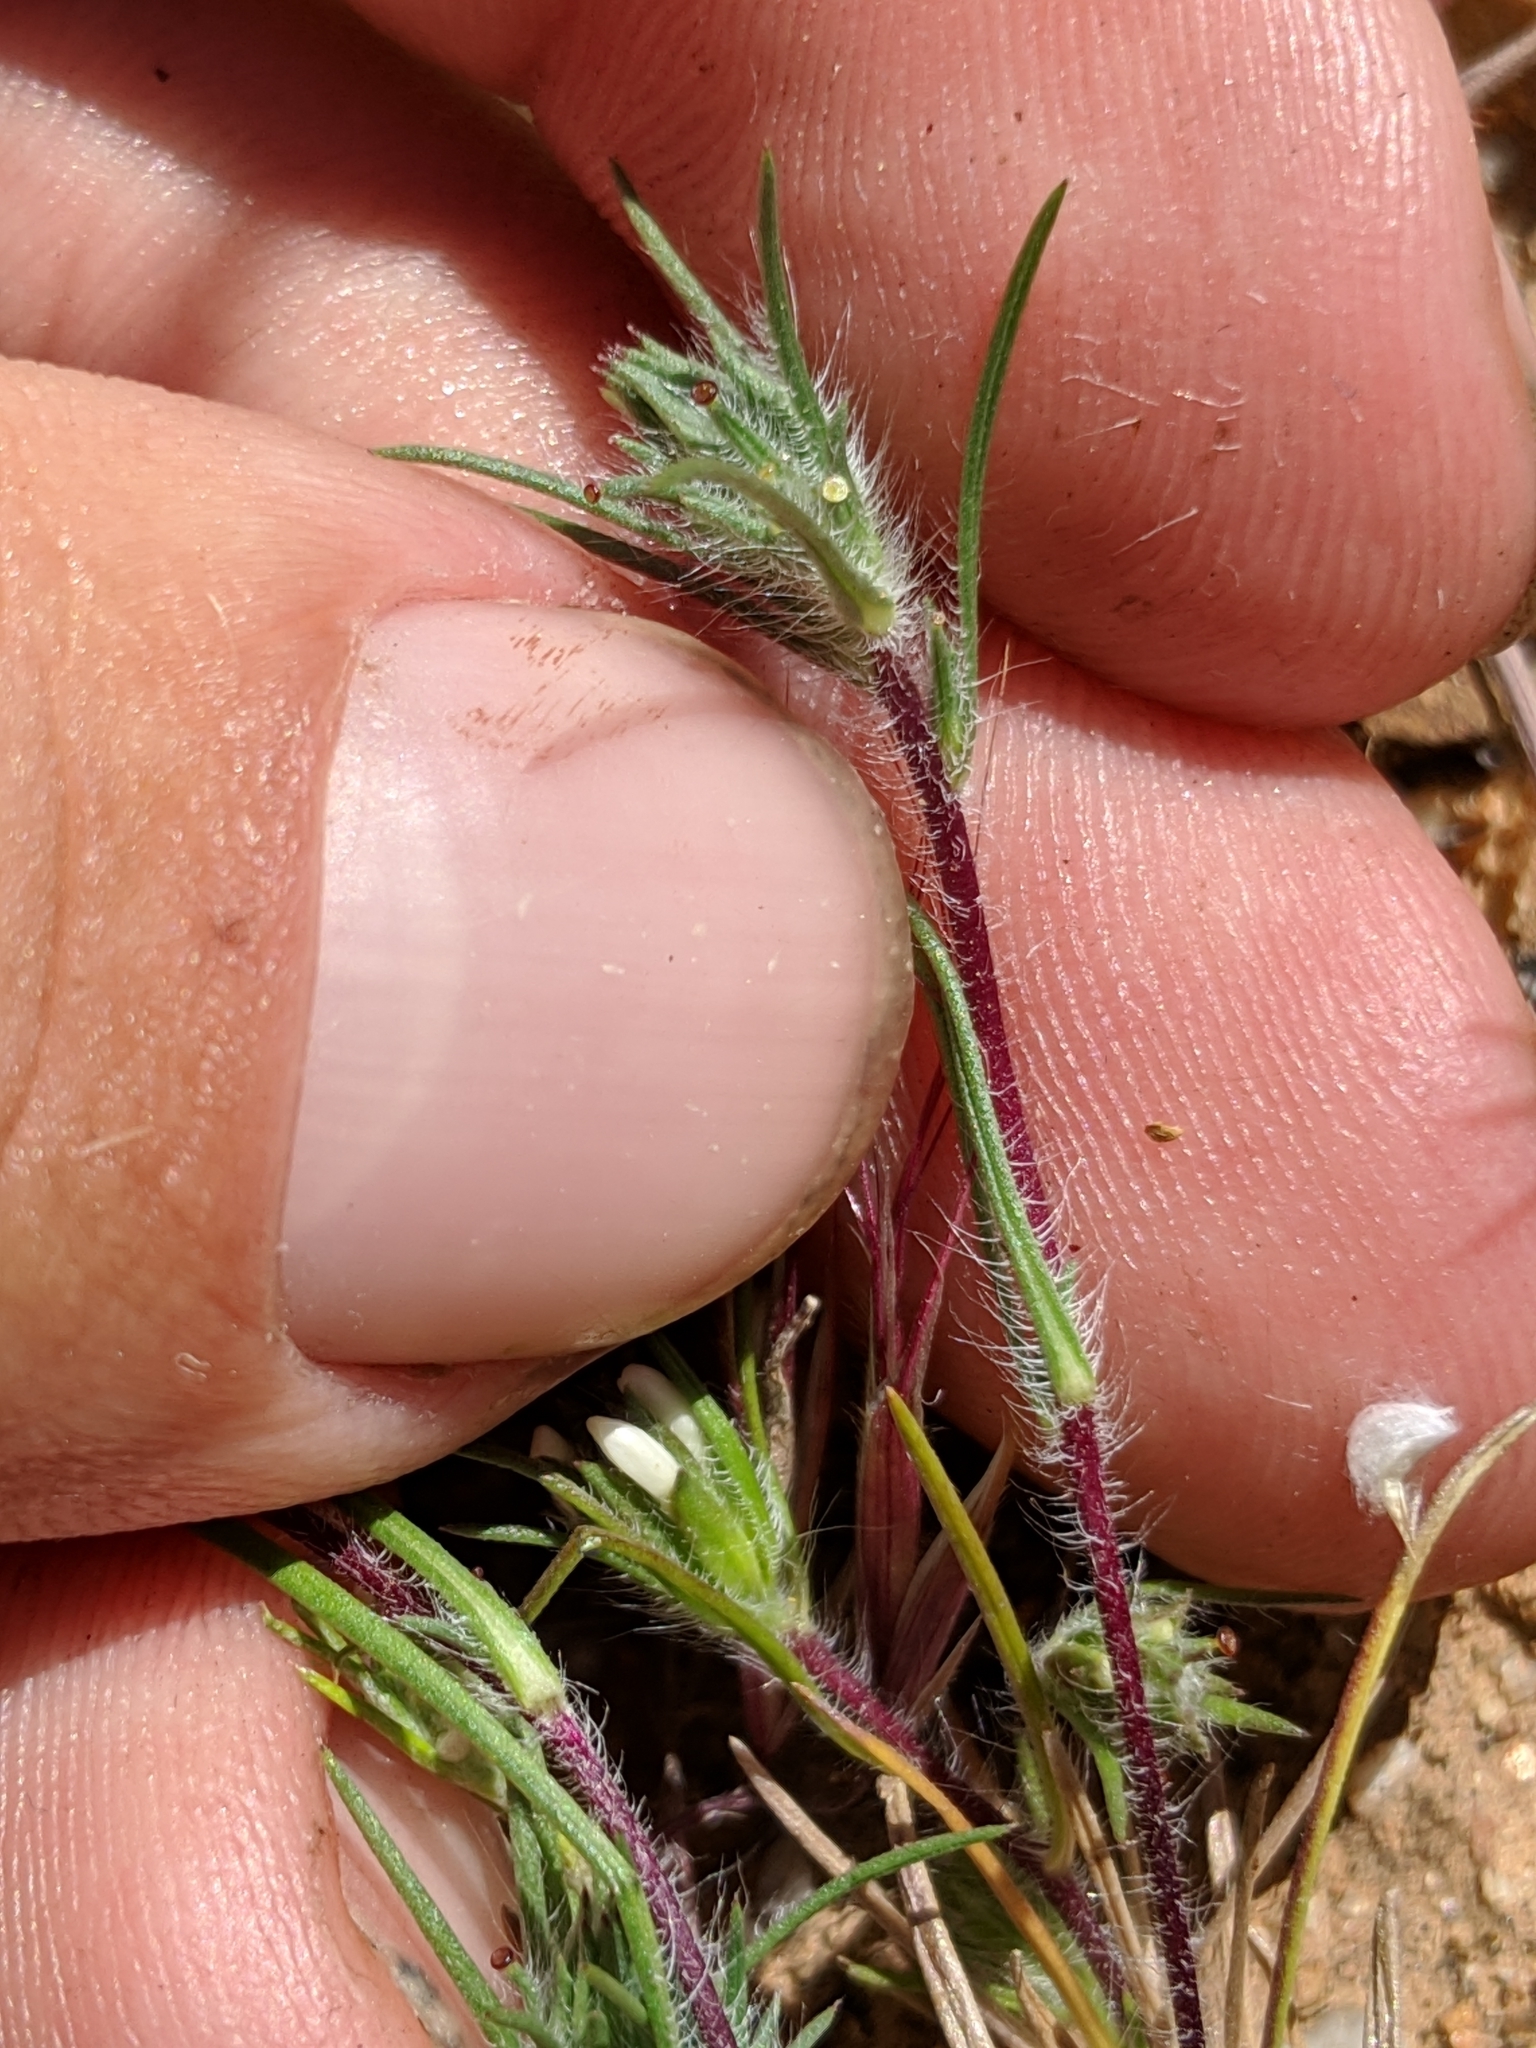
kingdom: Plantae
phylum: Tracheophyta
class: Magnoliopsida
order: Asterales
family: Asteraceae
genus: Calycadenia
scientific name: Calycadenia villosa
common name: Dwarf calycadenia
